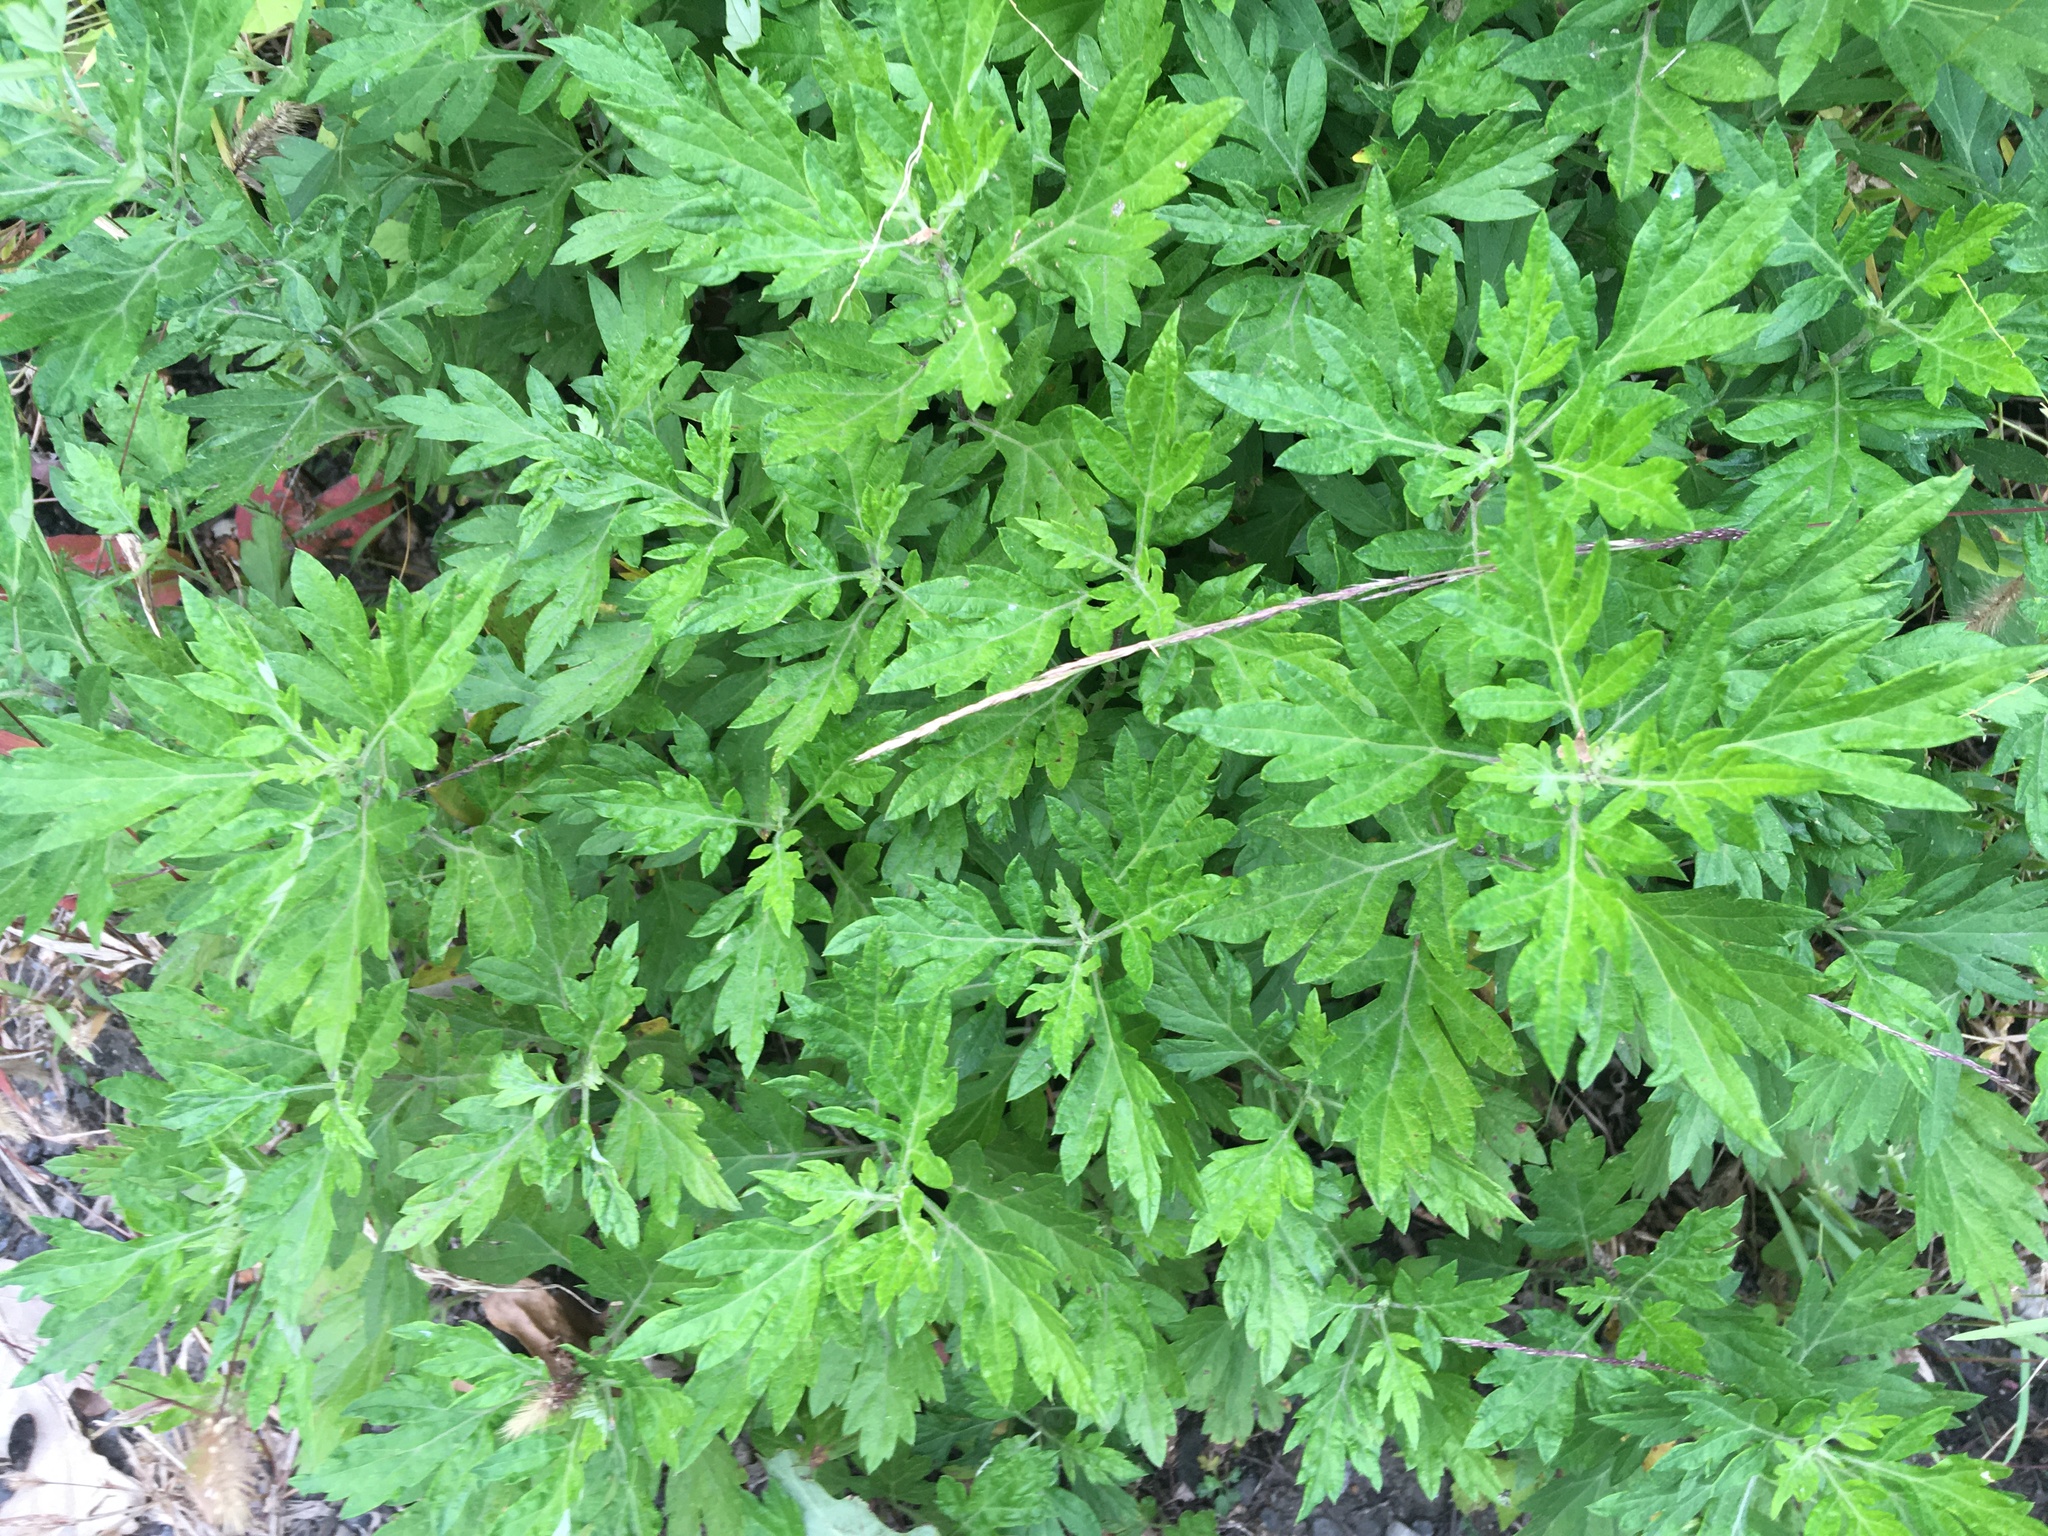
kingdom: Plantae
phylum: Tracheophyta
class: Magnoliopsida
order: Asterales
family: Asteraceae
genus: Artemisia
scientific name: Artemisia vulgaris
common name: Mugwort
